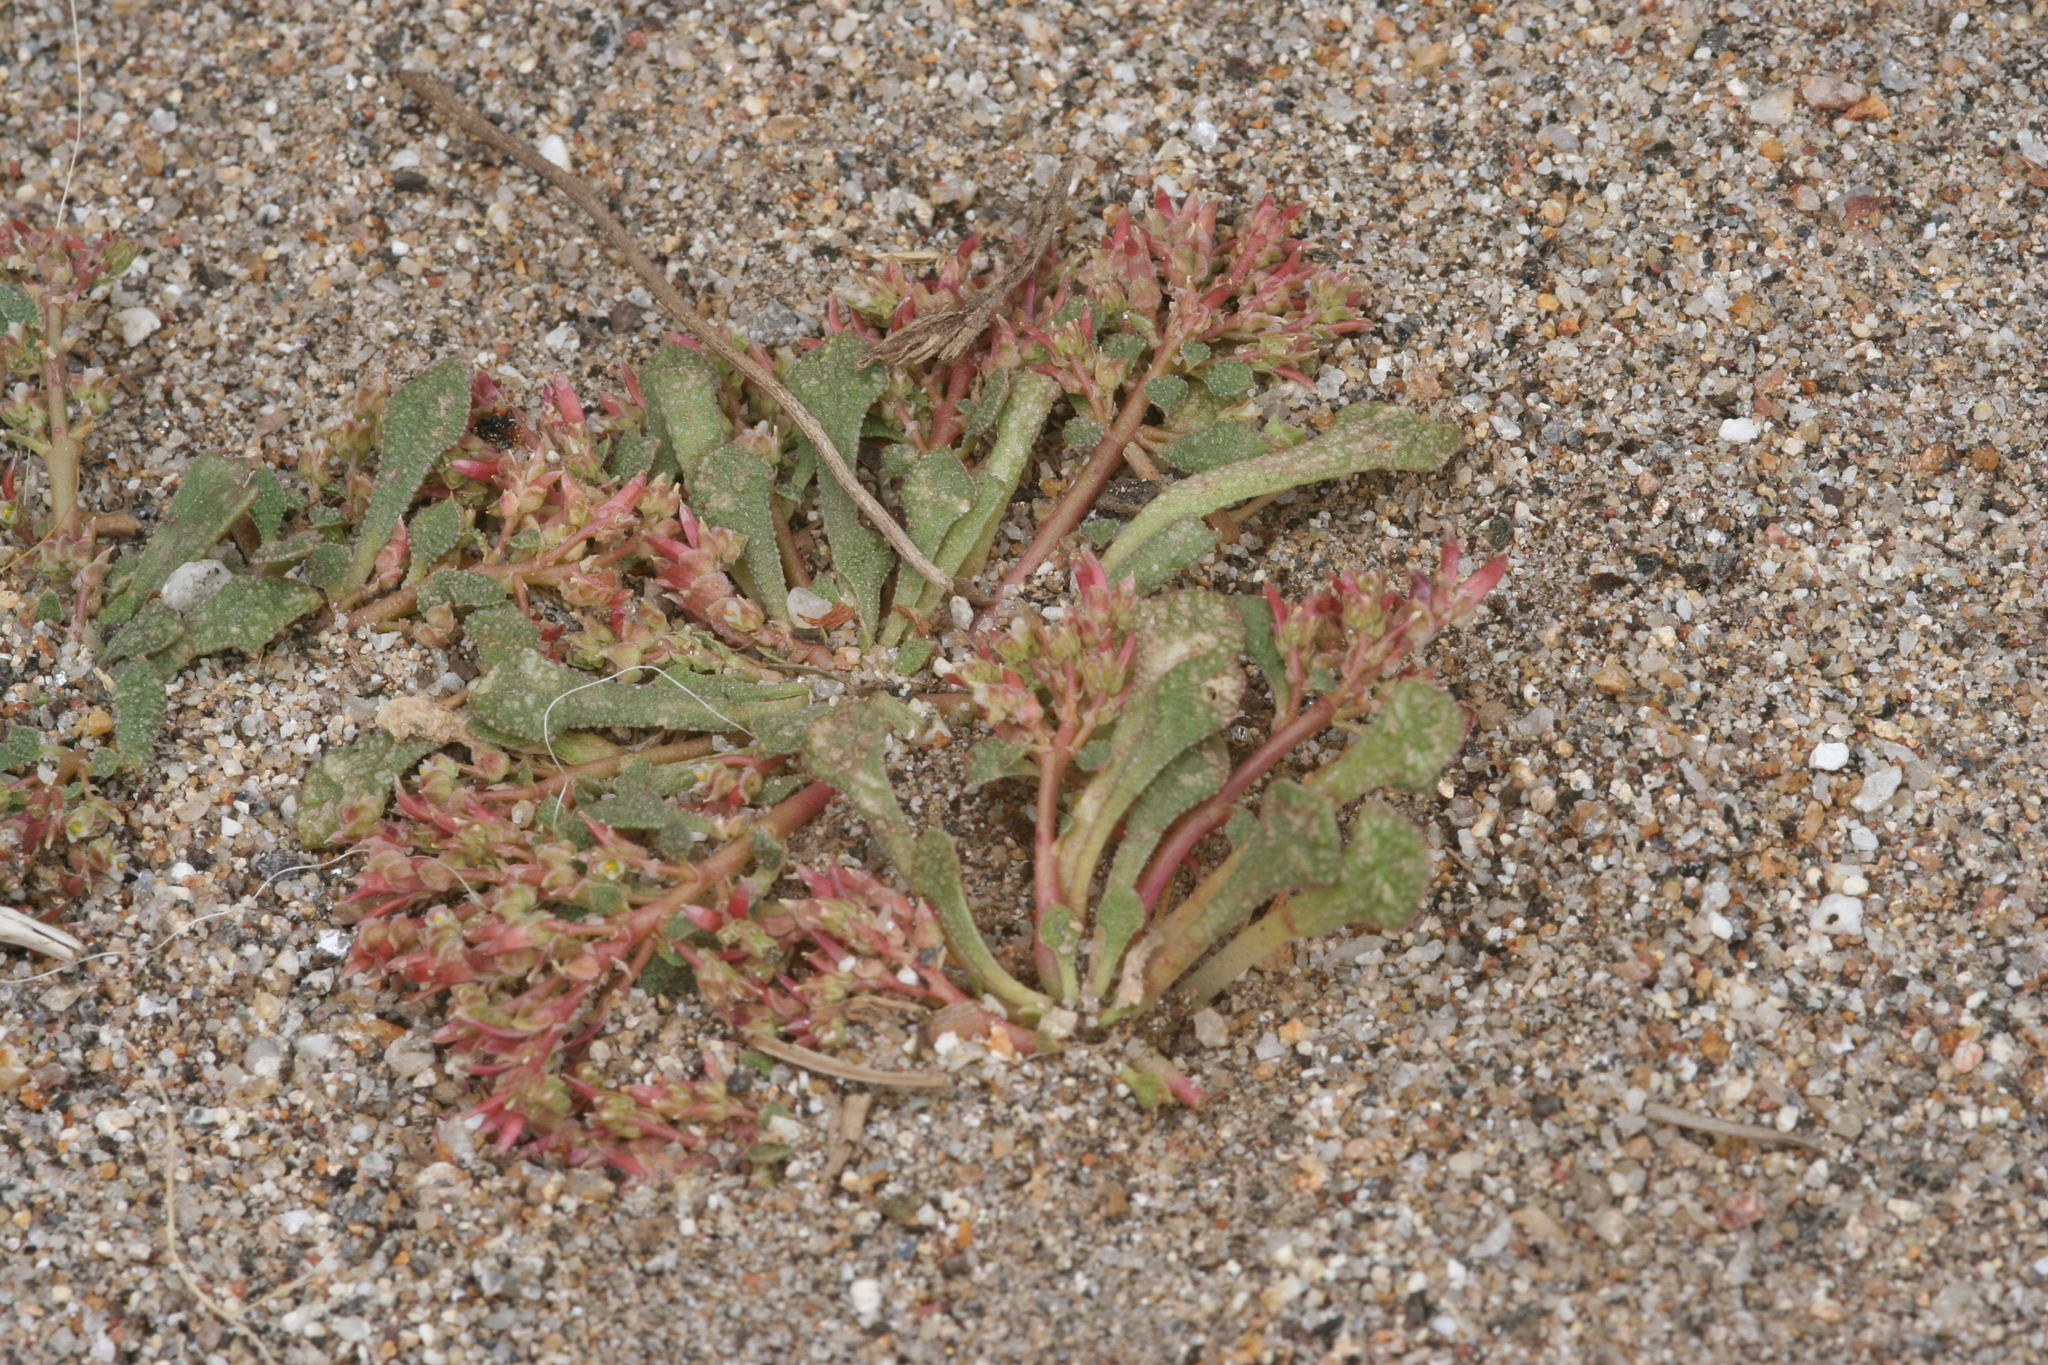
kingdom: Plantae
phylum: Tracheophyta
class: Magnoliopsida
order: Caryophyllales
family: Montiaceae
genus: Calyptridium
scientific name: Calyptridium monandrum
